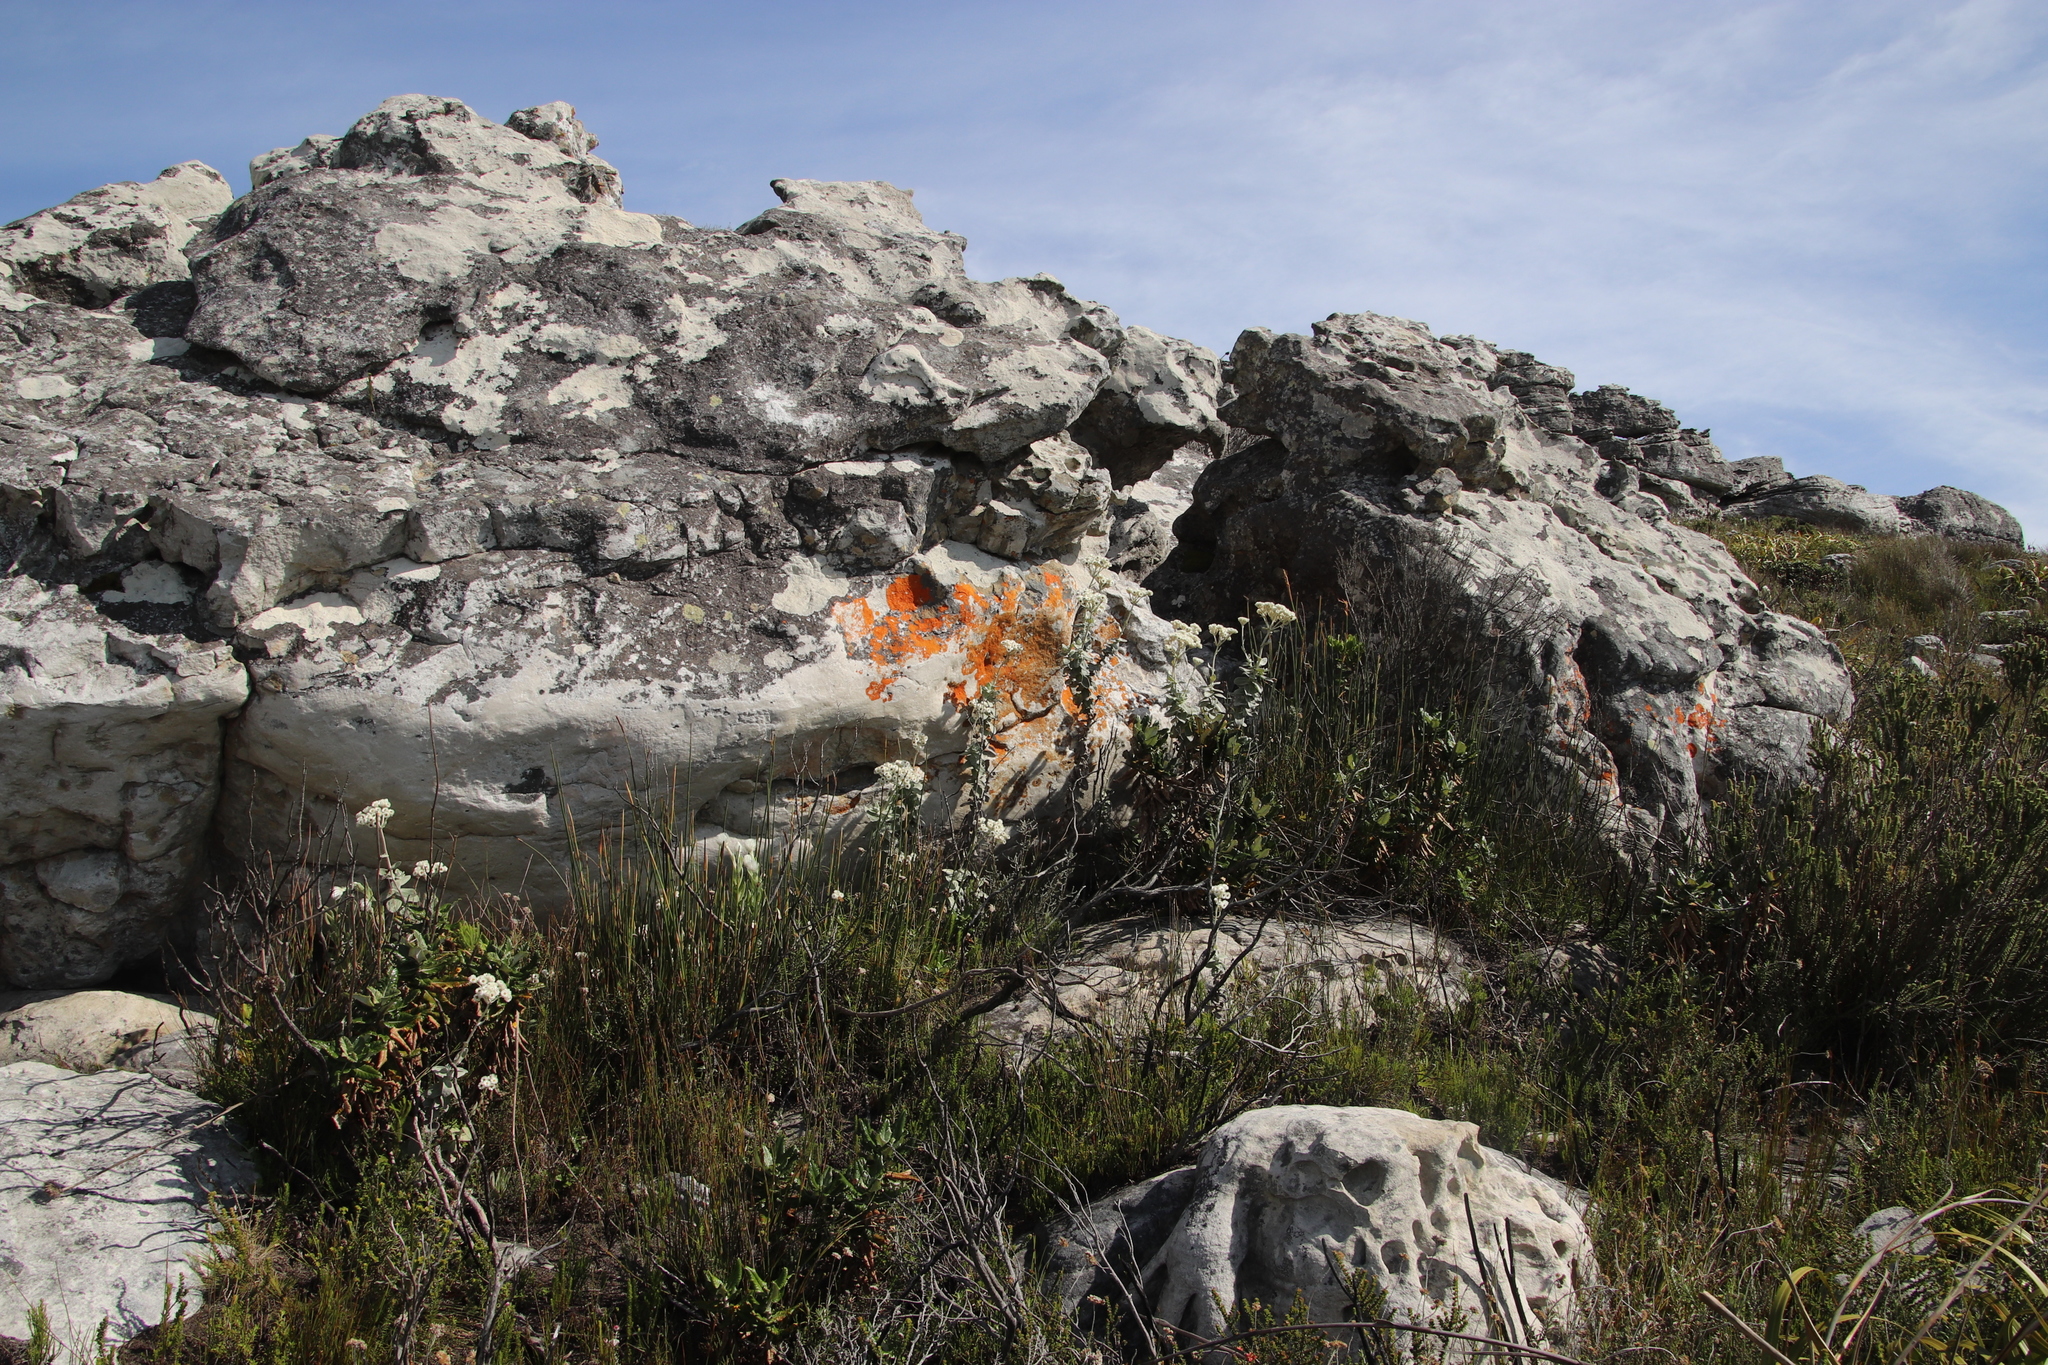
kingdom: Plantae
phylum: Tracheophyta
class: Magnoliopsida
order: Asterales
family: Asteraceae
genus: Helichrysum
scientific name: Helichrysum fruticans
